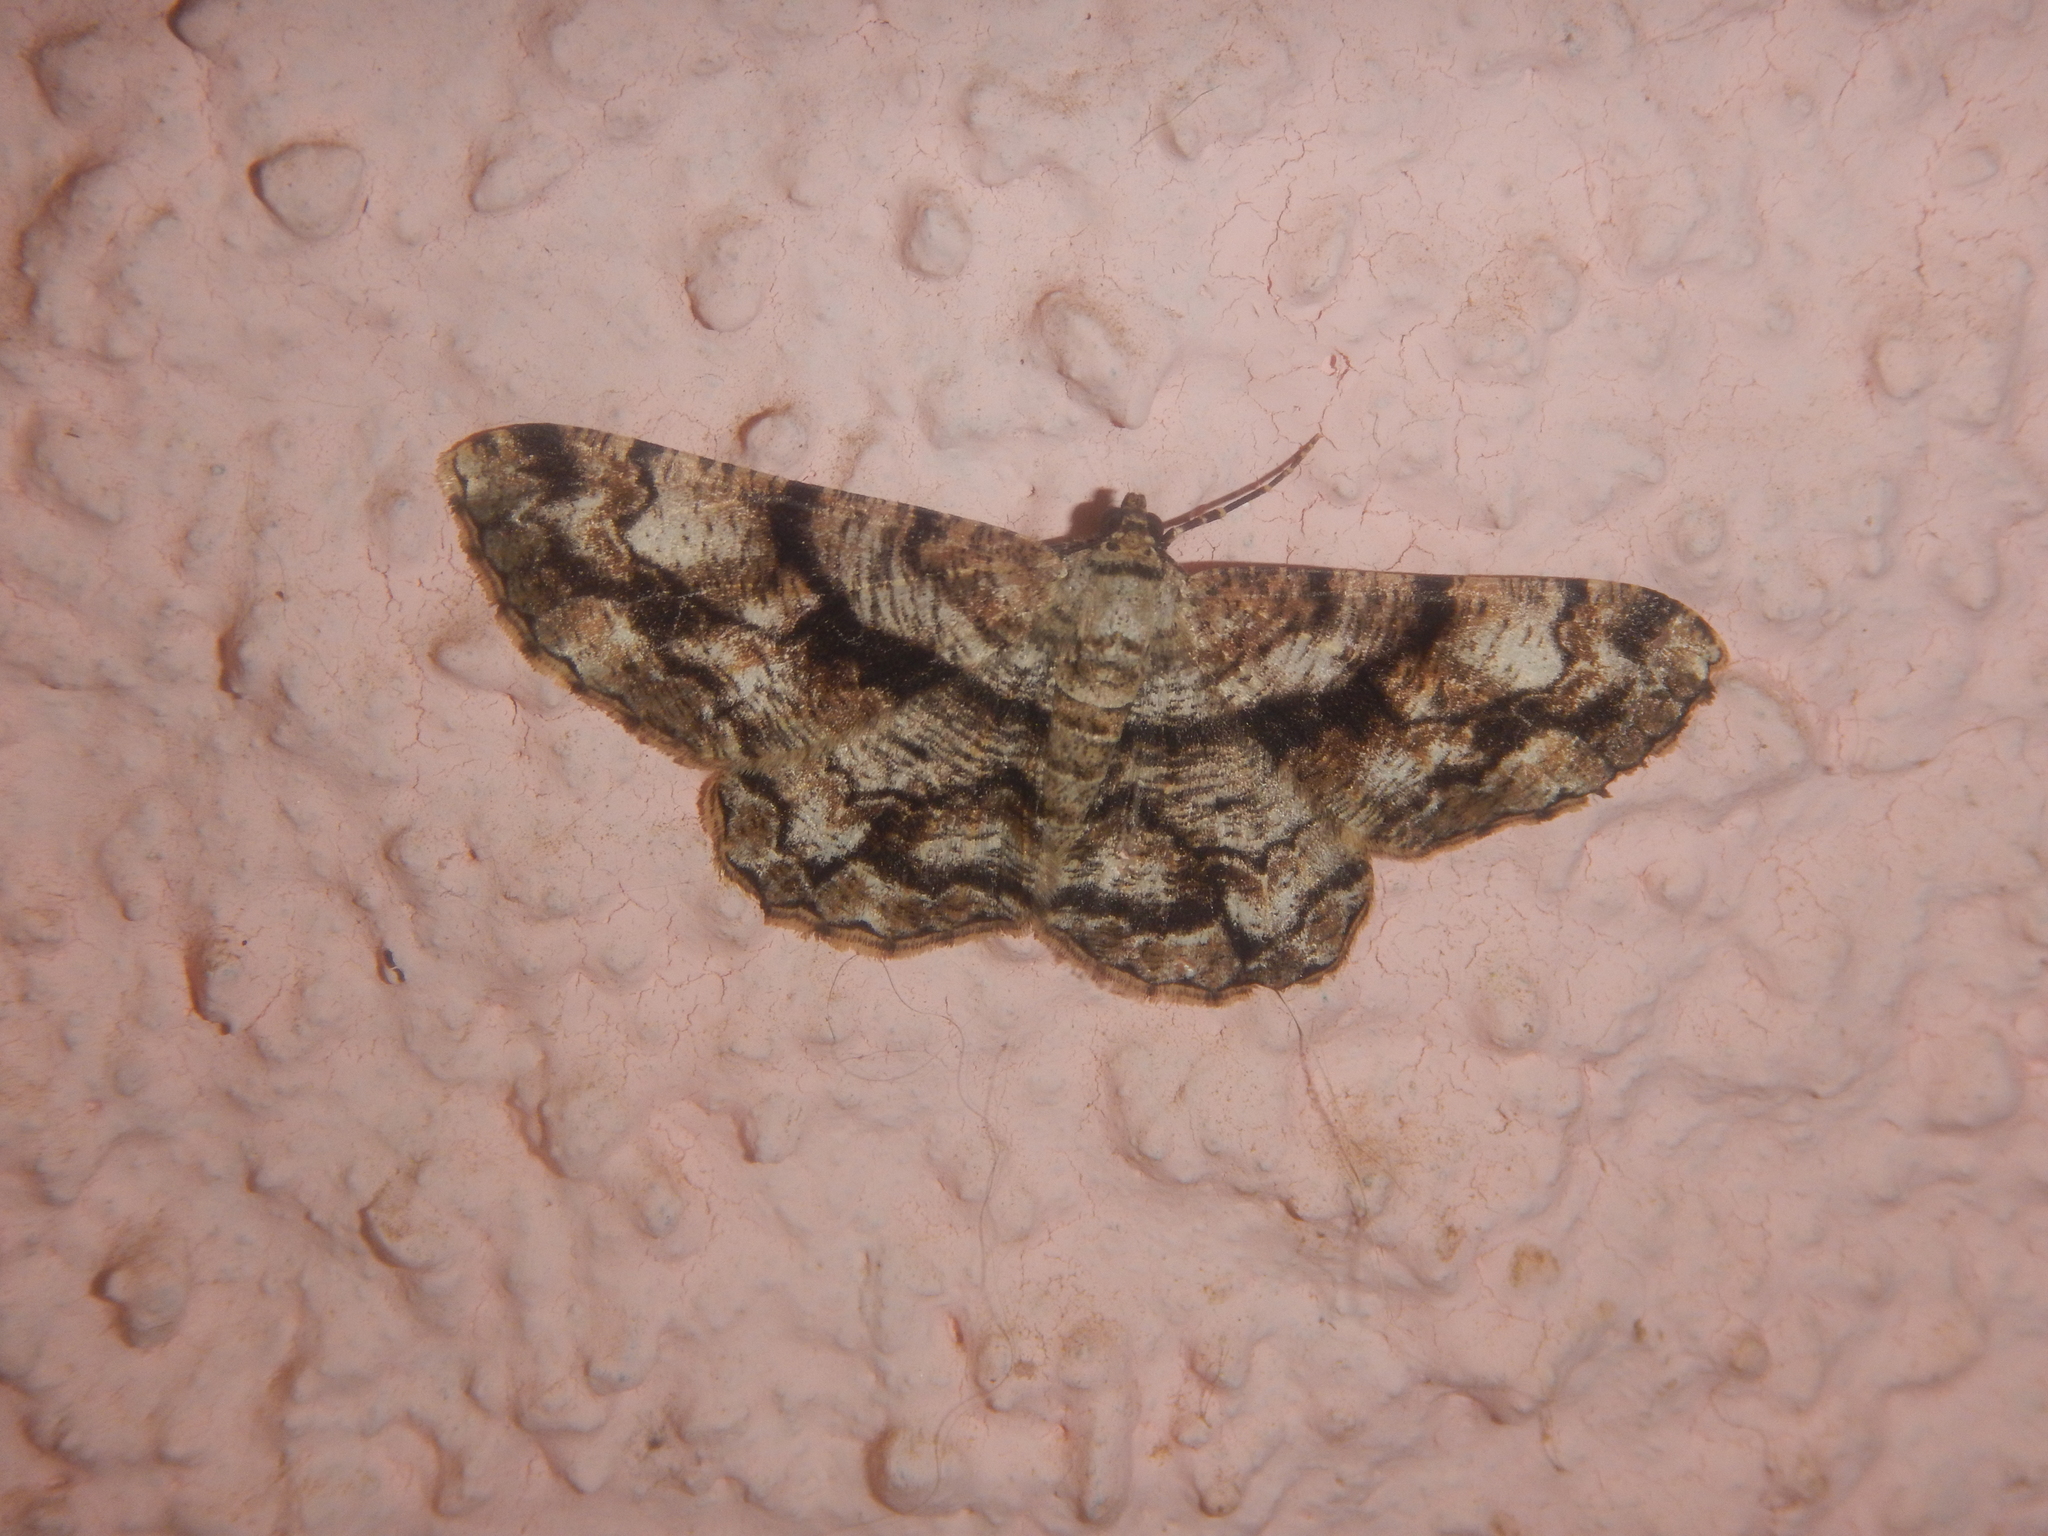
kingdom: Animalia
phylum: Arthropoda
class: Insecta
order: Lepidoptera
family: Geometridae
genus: Peribatodes
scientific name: Peribatodes umbraria
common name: Olive-tree beauty
